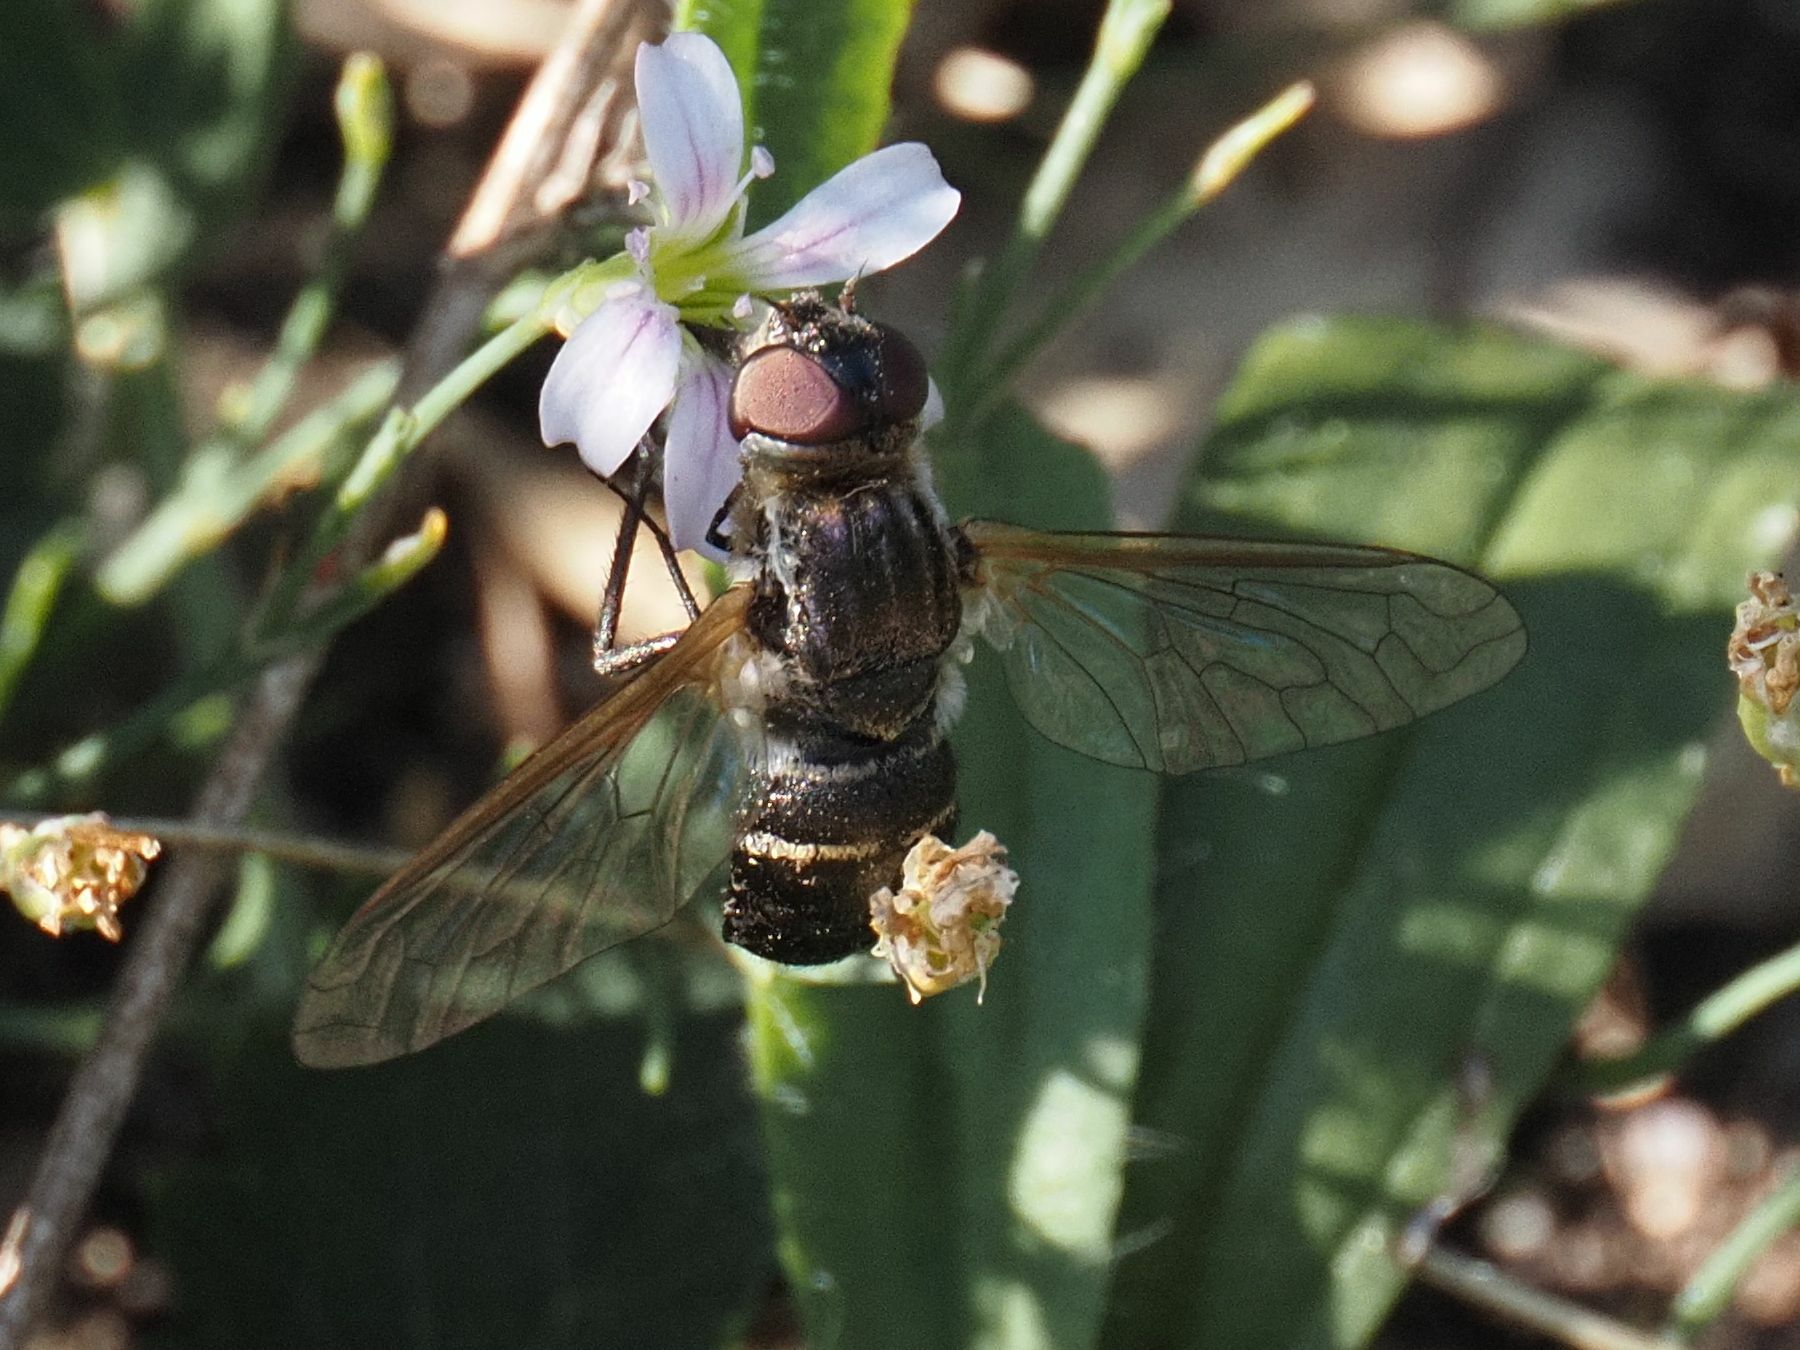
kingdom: Animalia
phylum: Arthropoda
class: Insecta
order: Diptera
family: Bombyliidae
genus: Micomitra
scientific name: Micomitra stupida
